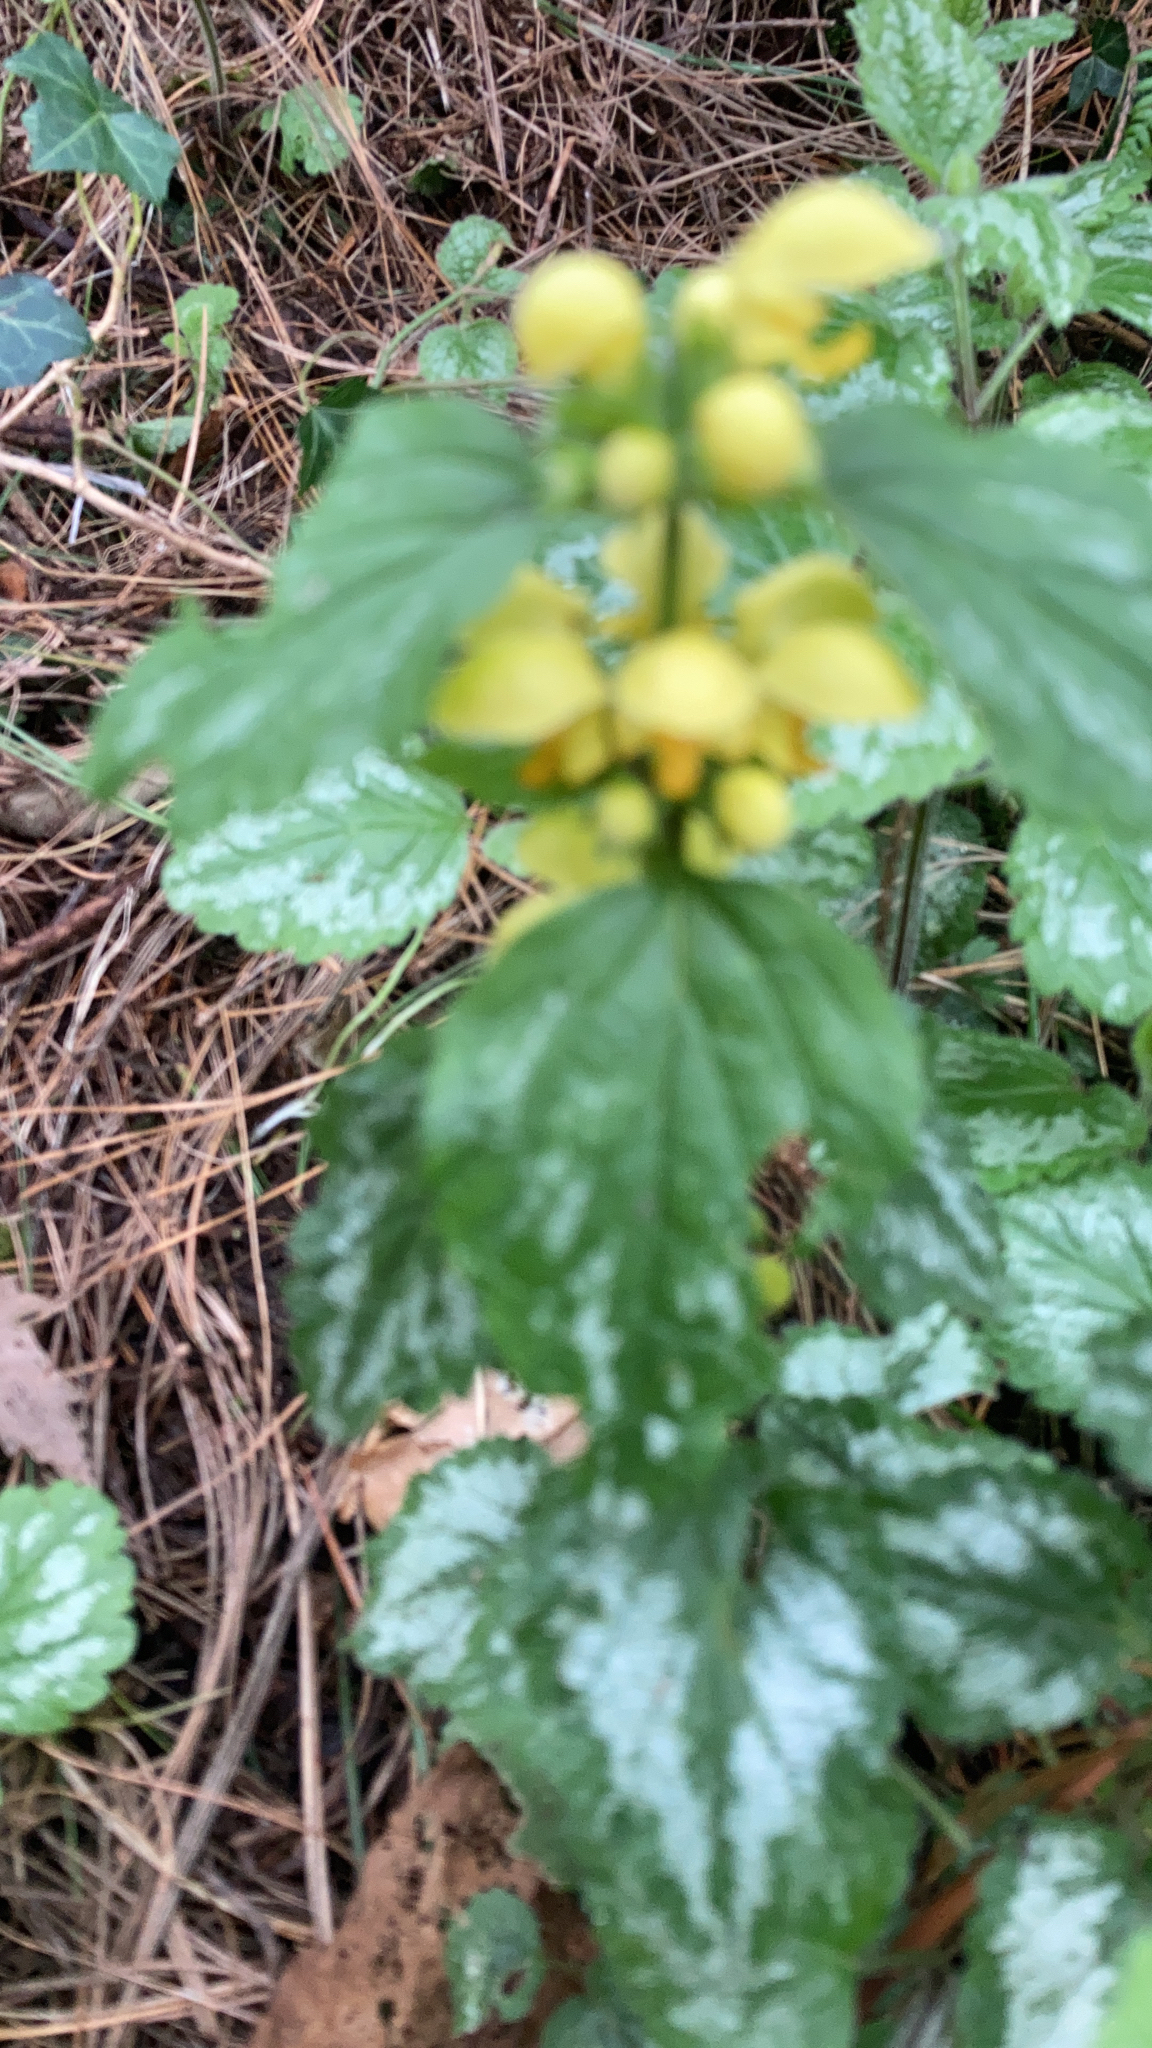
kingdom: Plantae
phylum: Tracheophyta
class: Magnoliopsida
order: Lamiales
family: Lamiaceae
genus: Lamium
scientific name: Lamium galeobdolon
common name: Yellow archangel
